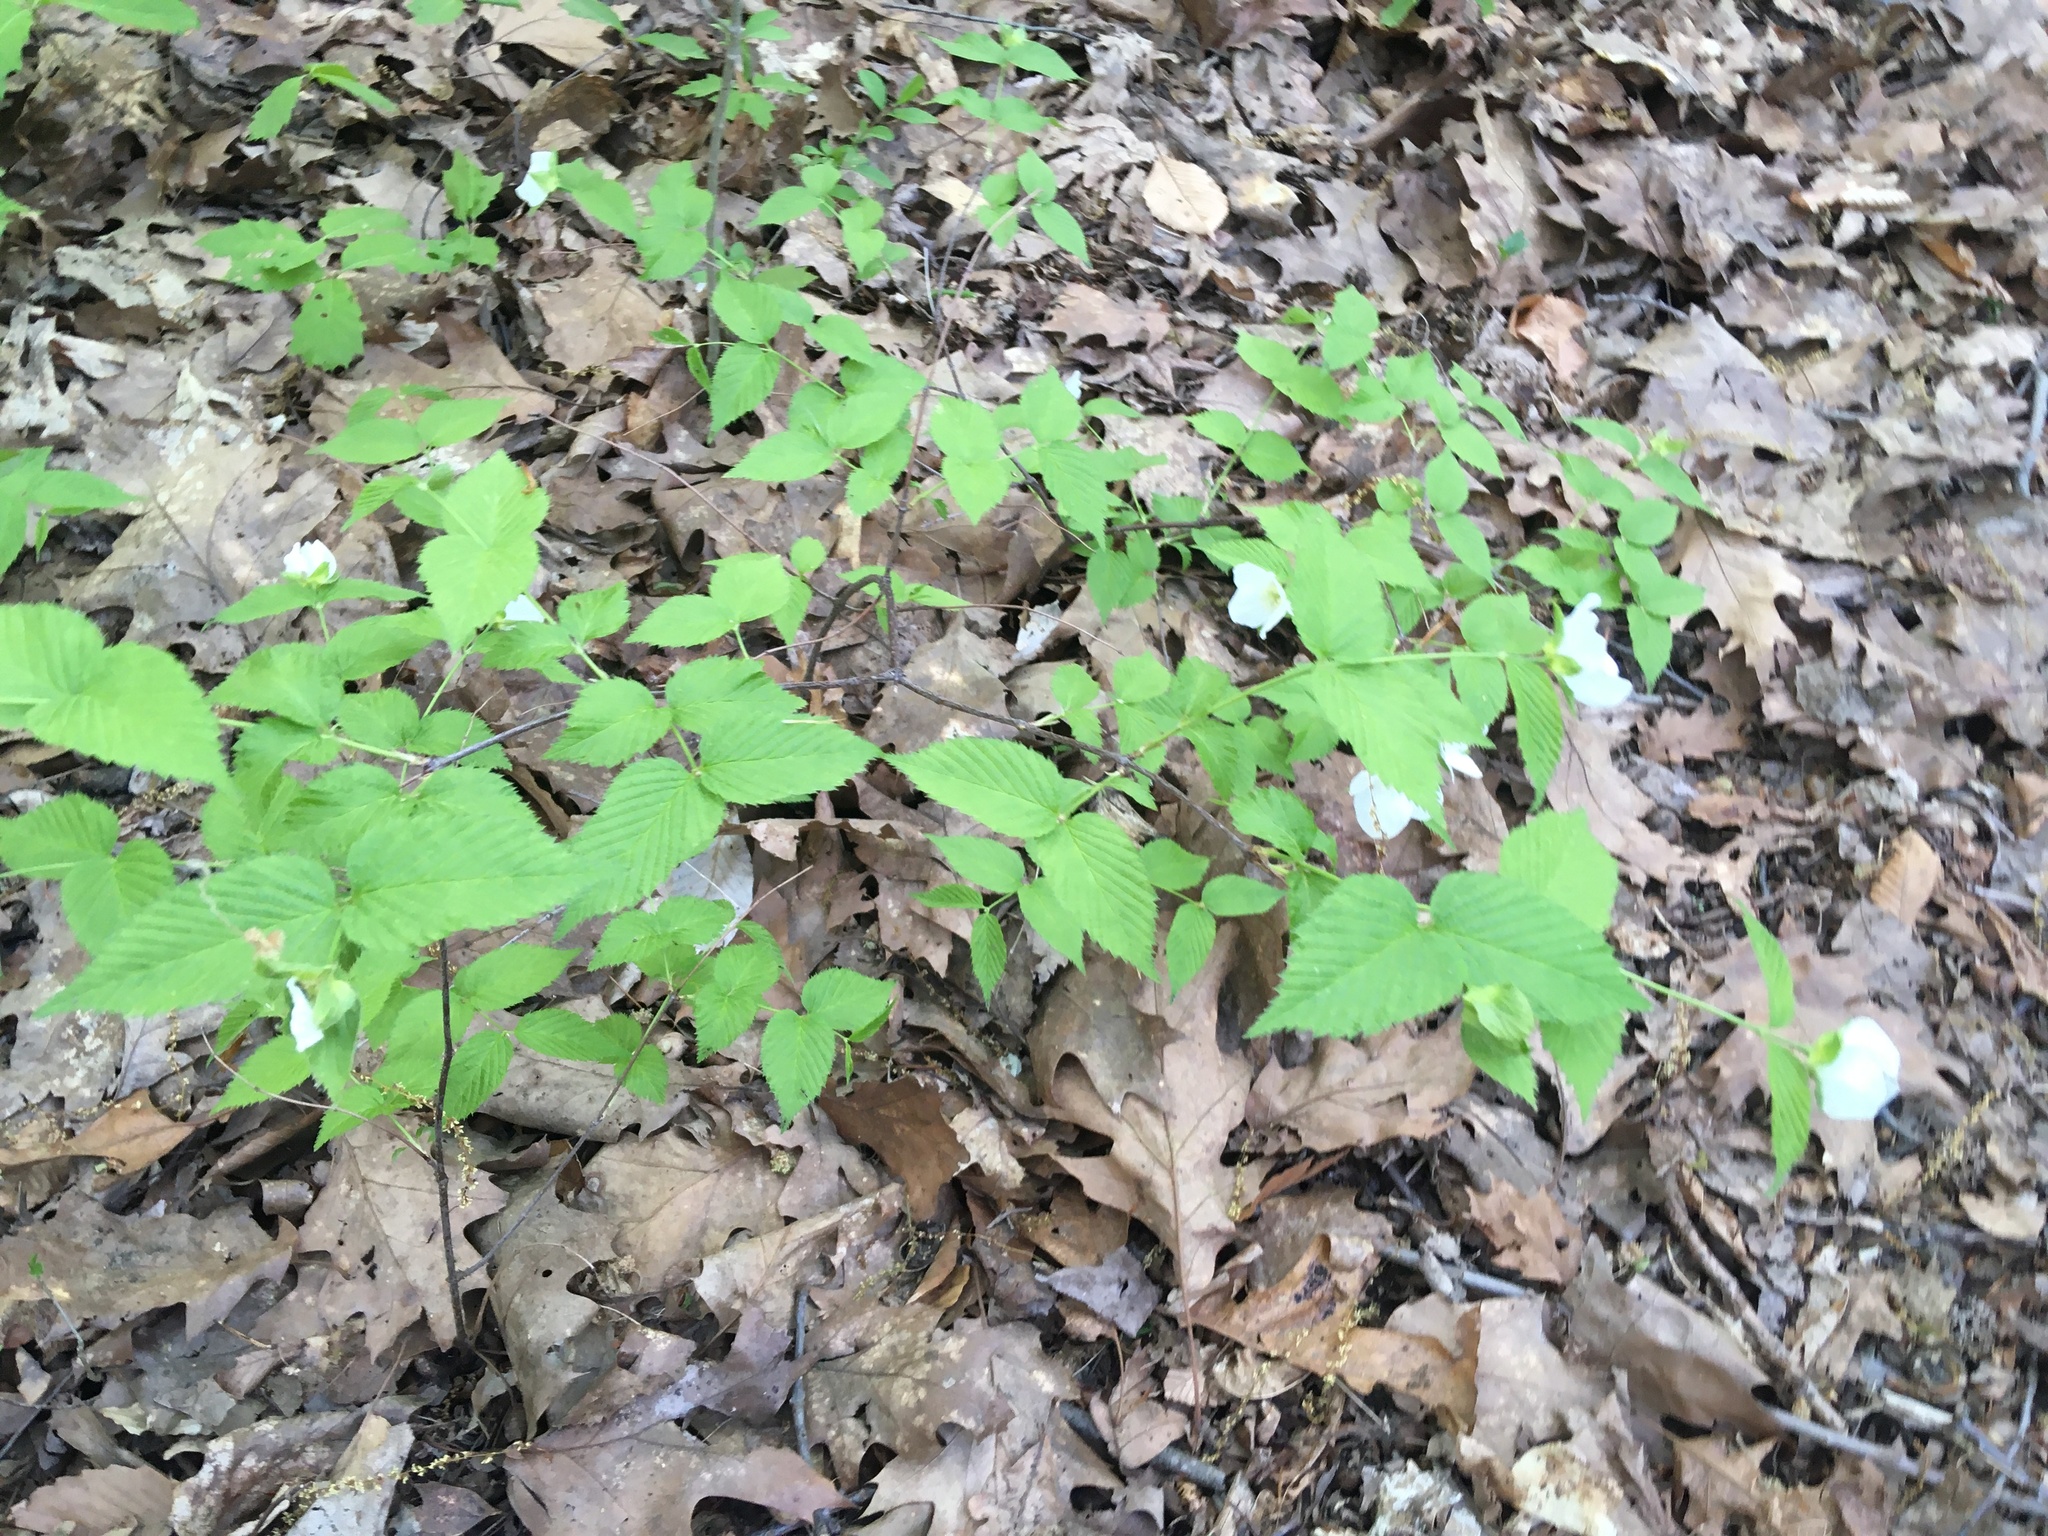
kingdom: Plantae
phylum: Tracheophyta
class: Magnoliopsida
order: Rosales
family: Rosaceae
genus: Rhodotypos
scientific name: Rhodotypos scandens
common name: Jetbead
